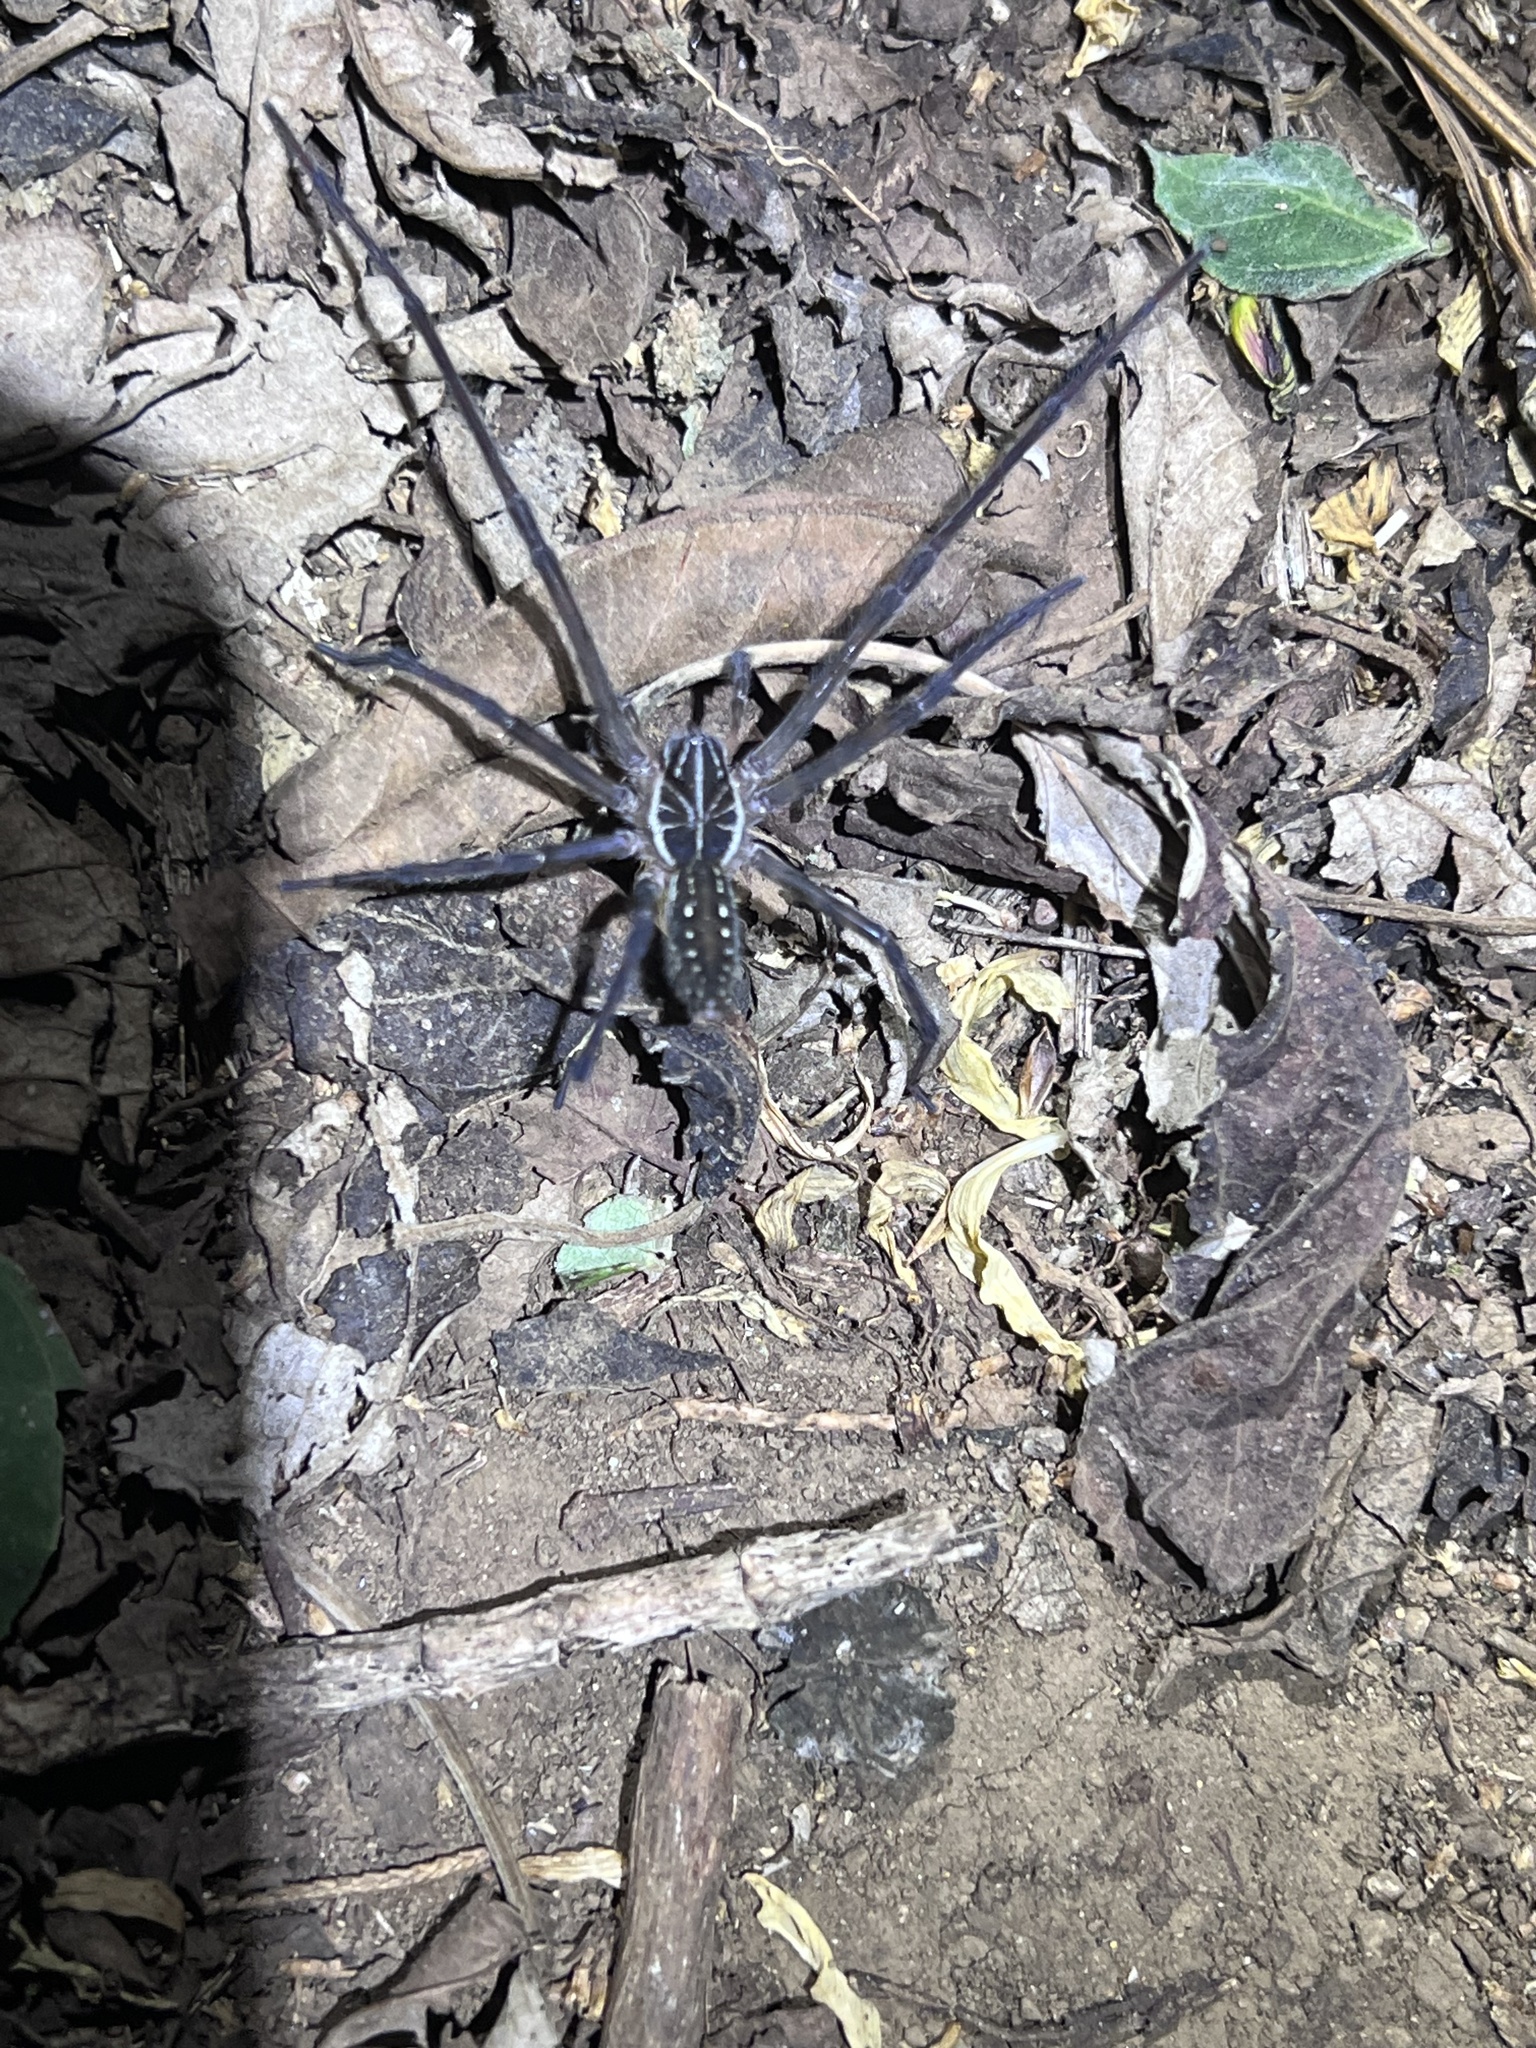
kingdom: Animalia
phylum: Arthropoda
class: Arachnida
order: Araneae
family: Zoropsidae
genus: Tengella
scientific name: Tengella radiata
